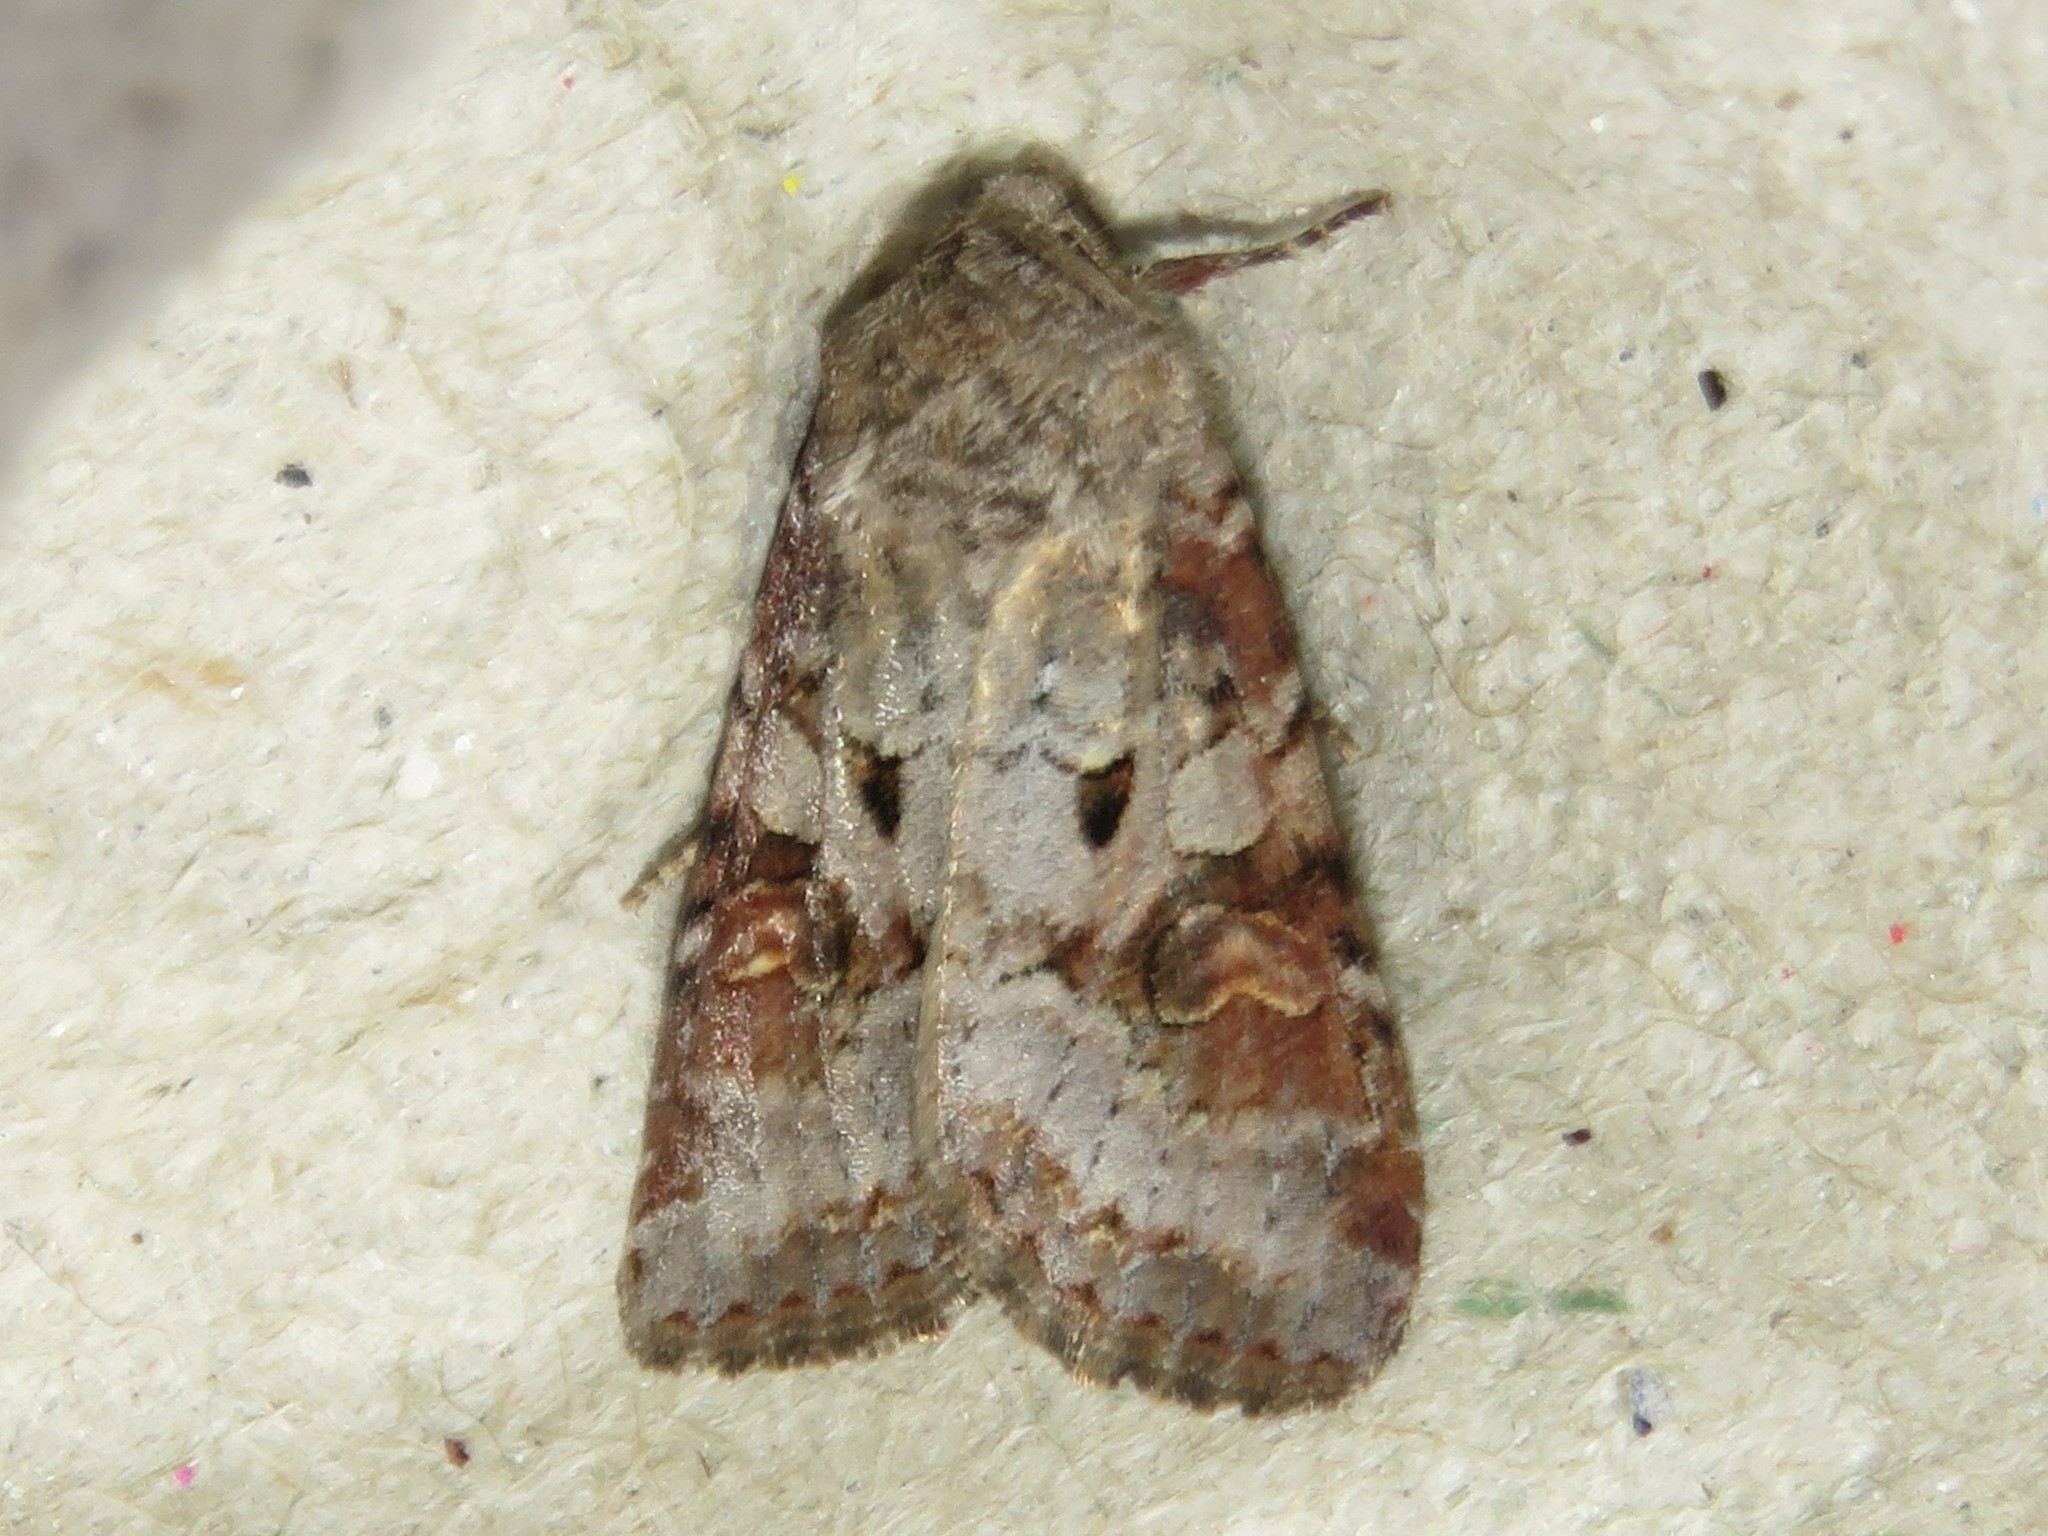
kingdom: Animalia
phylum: Arthropoda
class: Insecta
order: Lepidoptera
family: Noctuidae
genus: Trichordestra
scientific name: Trichordestra legitima
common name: Striped garden caterpillar
